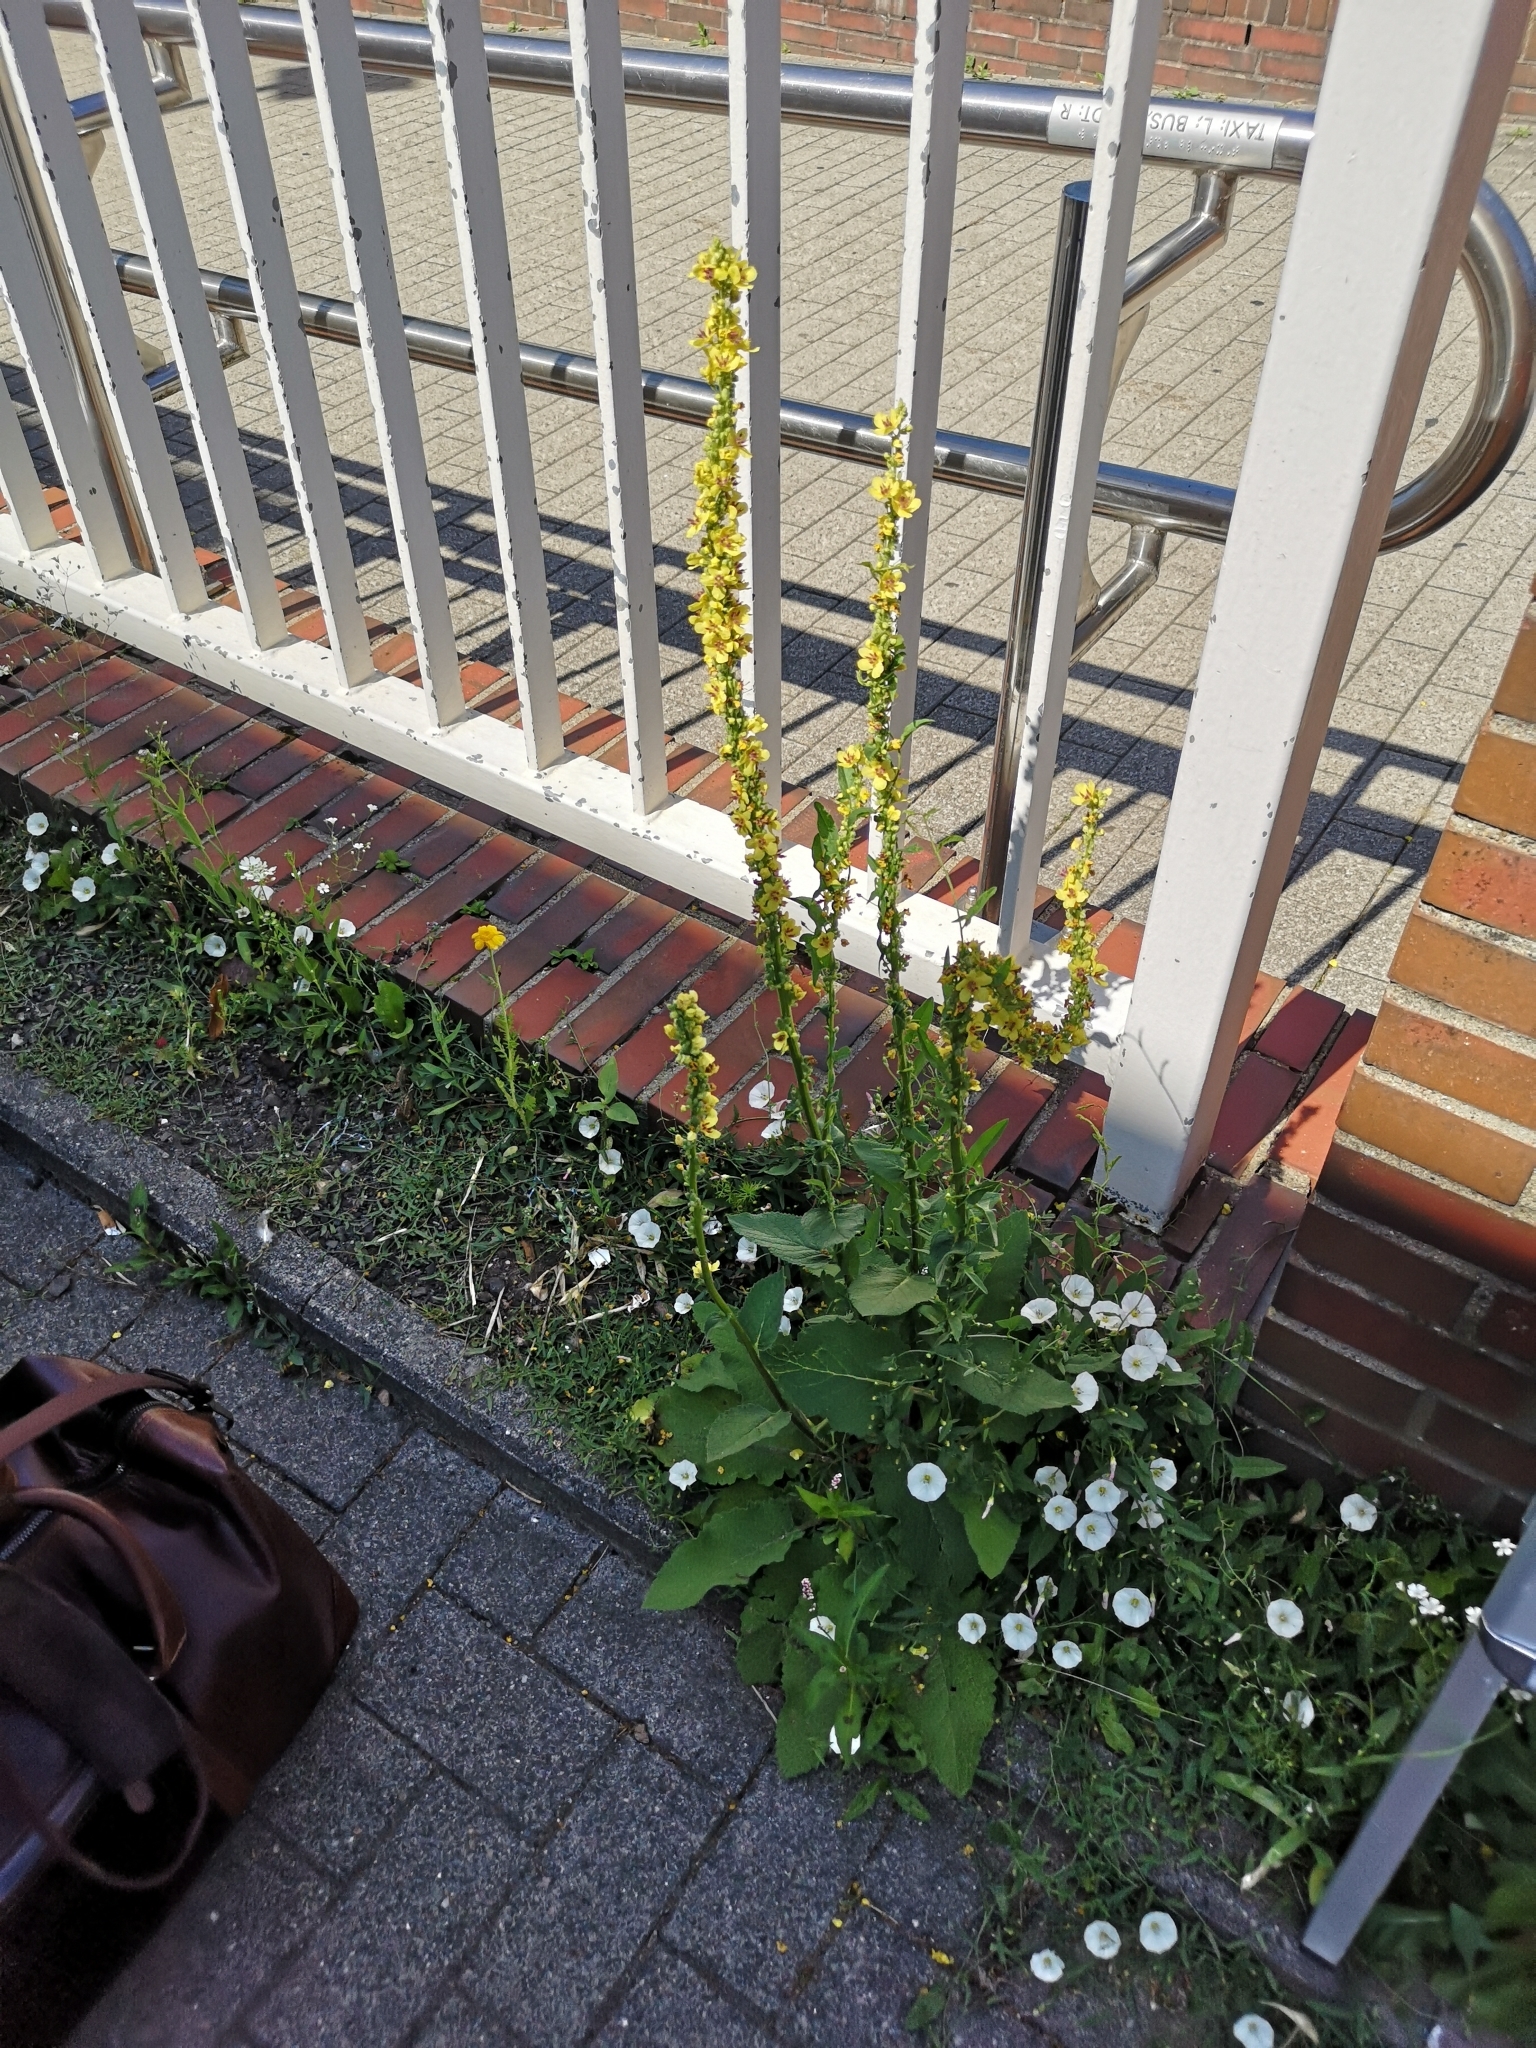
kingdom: Plantae
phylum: Tracheophyta
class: Magnoliopsida
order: Lamiales
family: Scrophulariaceae
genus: Verbascum
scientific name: Verbascum nigrum
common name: Dark mullein
